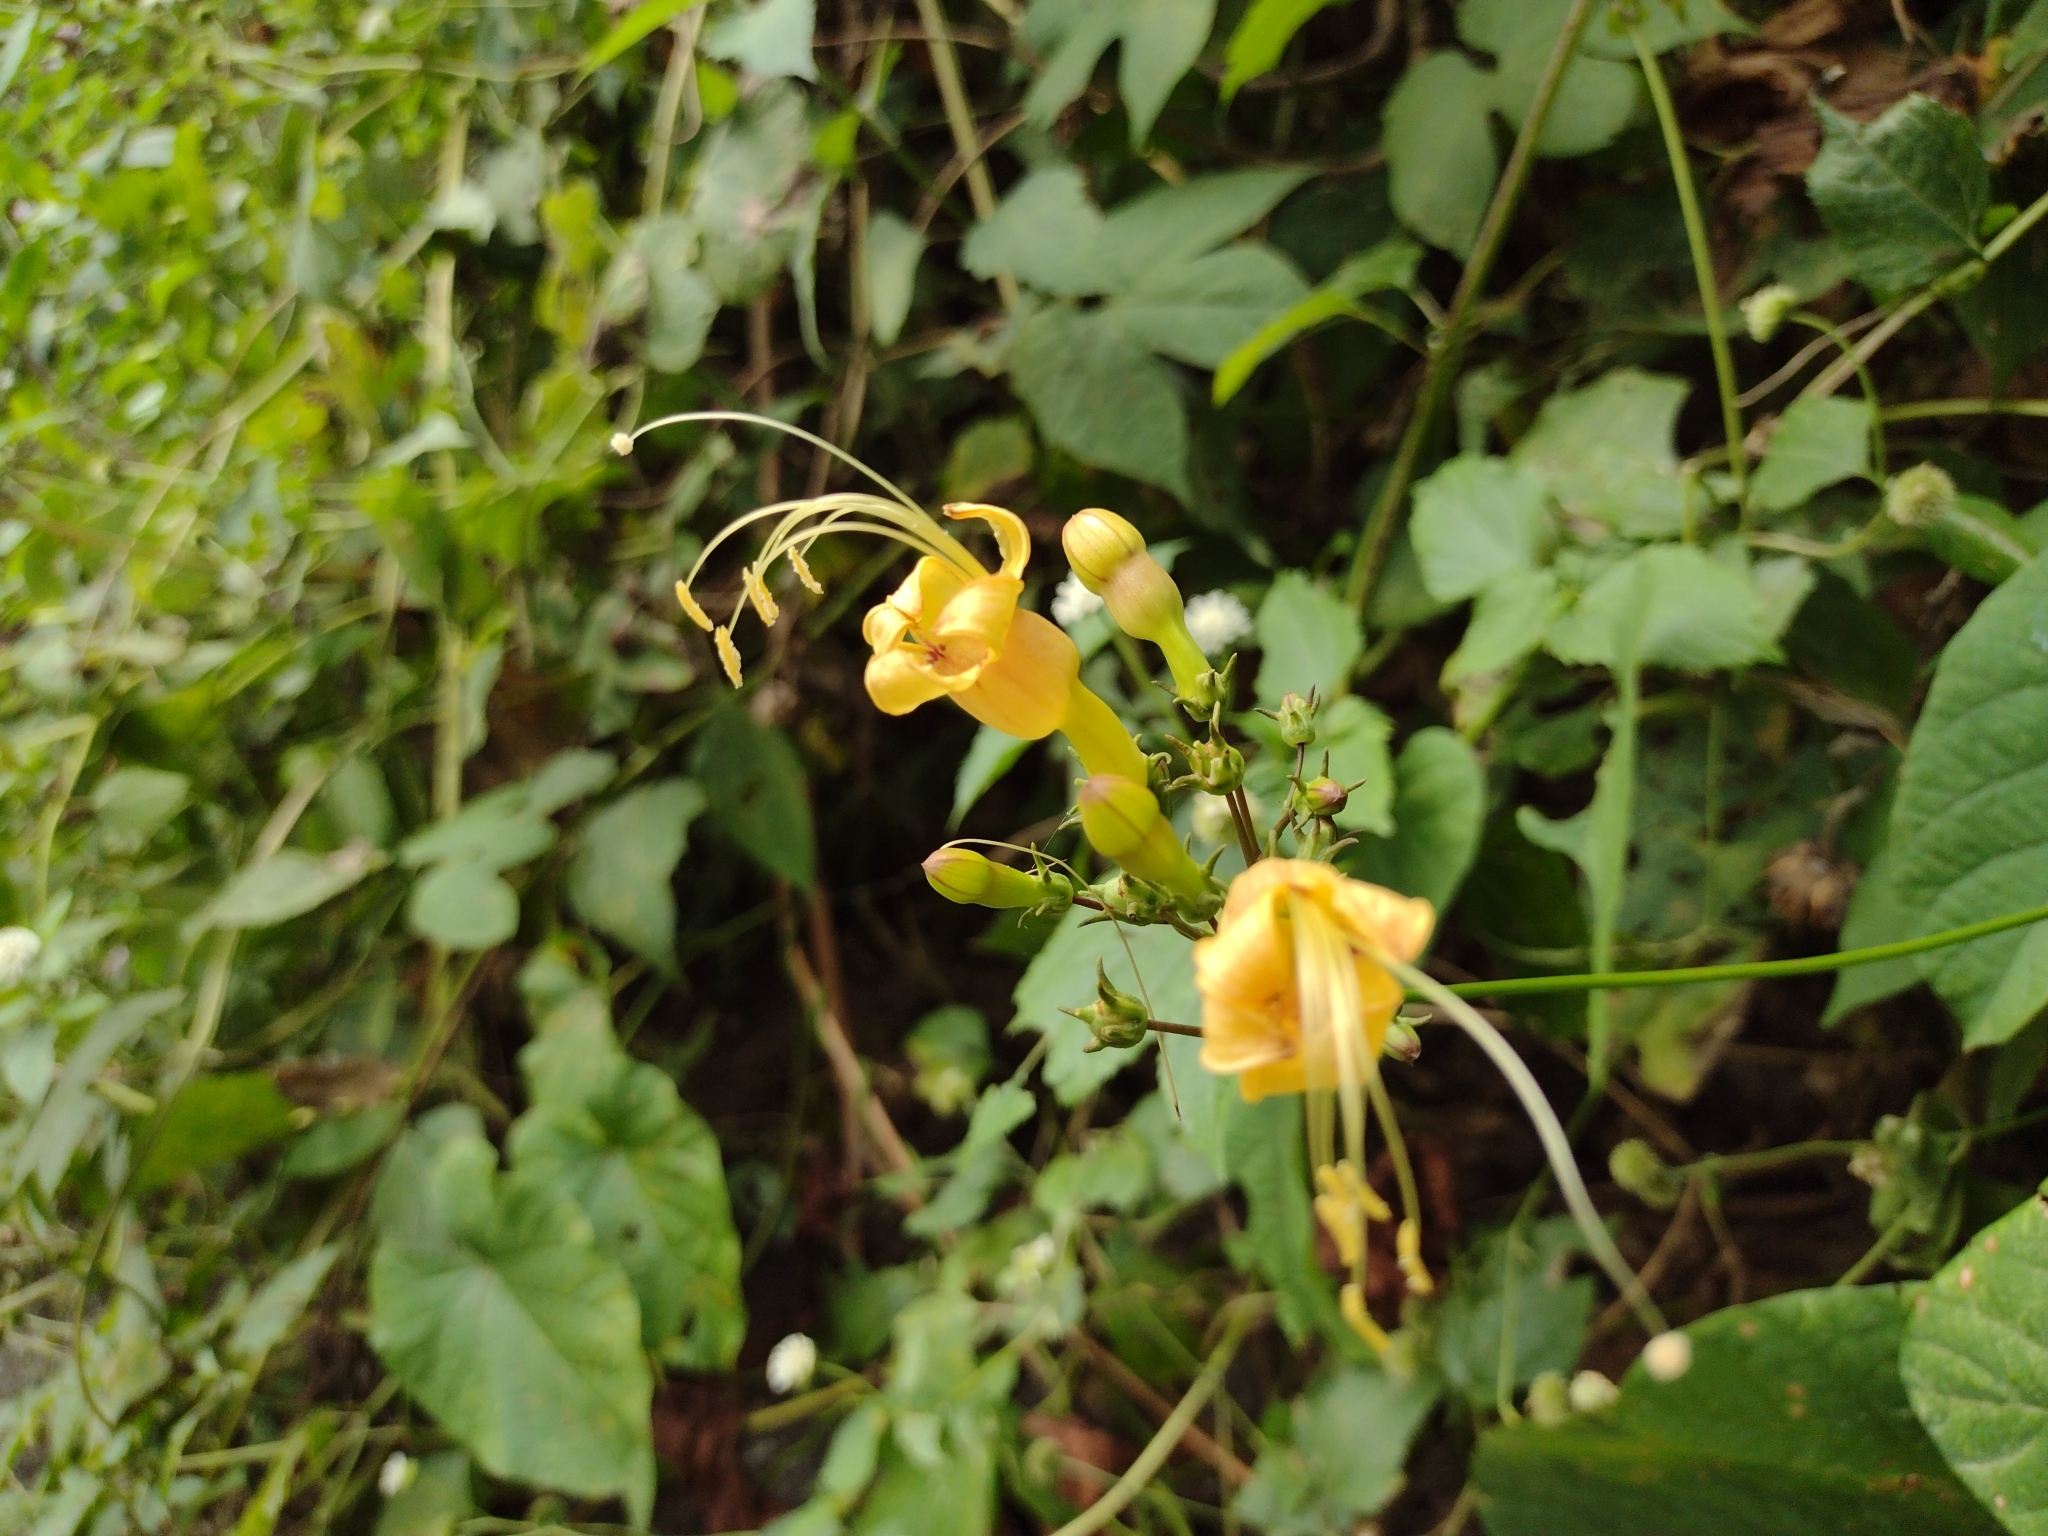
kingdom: Plantae
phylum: Tracheophyta
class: Magnoliopsida
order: Solanales
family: Convolvulaceae
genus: Ipomoea
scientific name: Ipomoea neei
